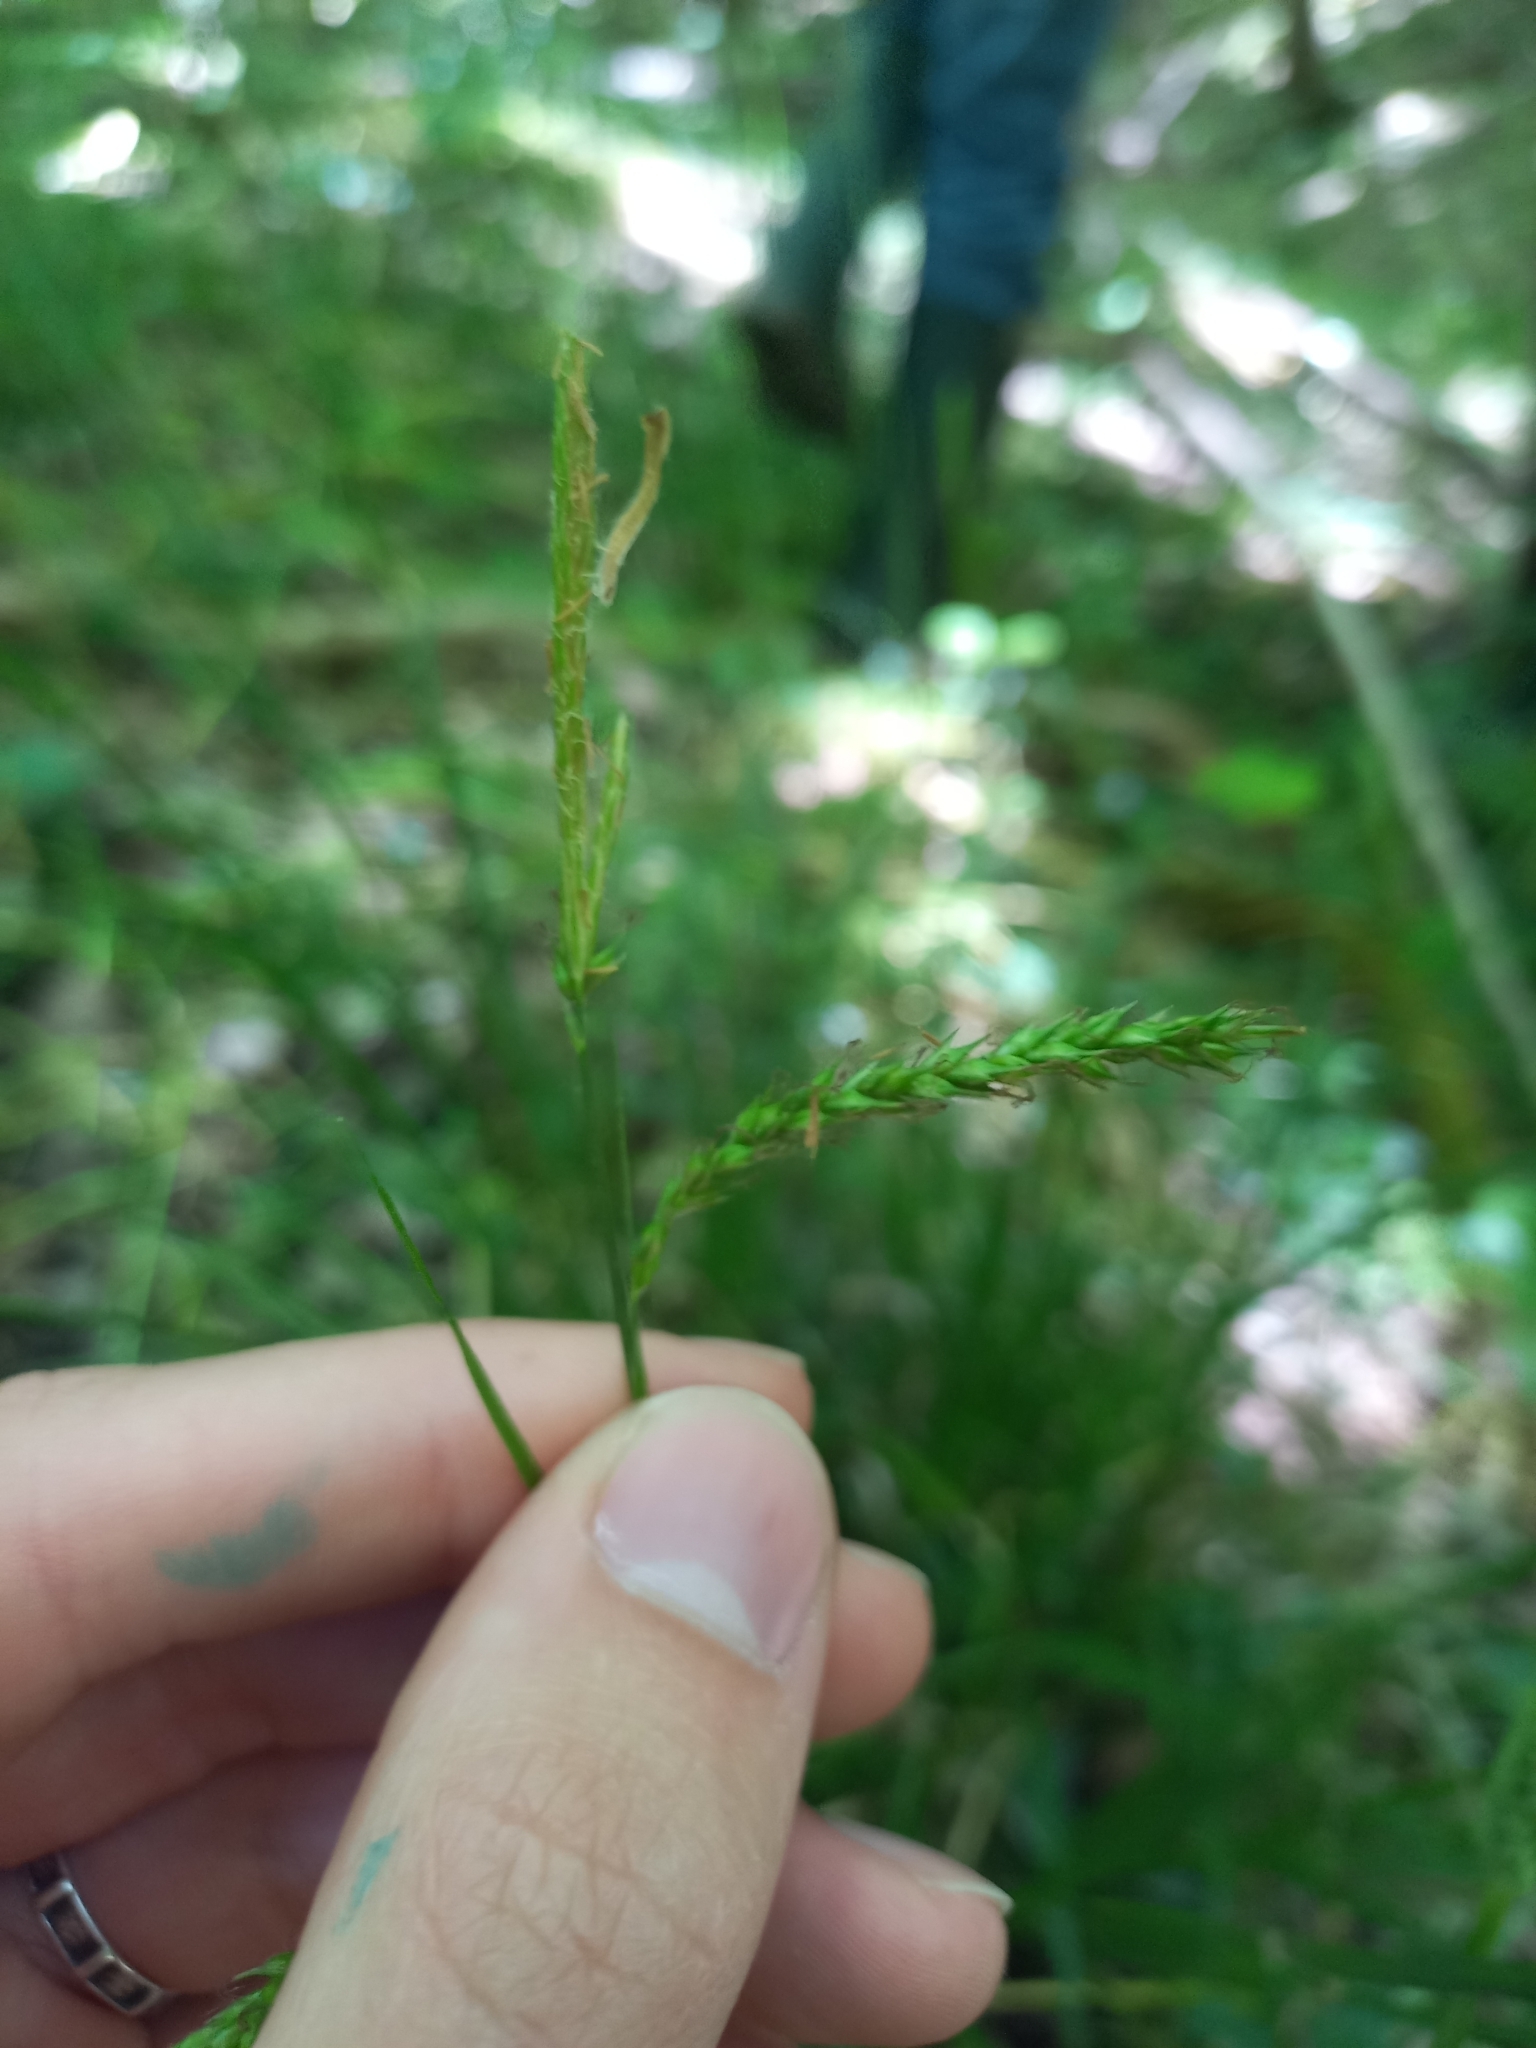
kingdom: Plantae
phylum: Tracheophyta
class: Liliopsida
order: Poales
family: Cyperaceae
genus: Carex
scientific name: Carex sylvatica
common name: Wood-sedge
